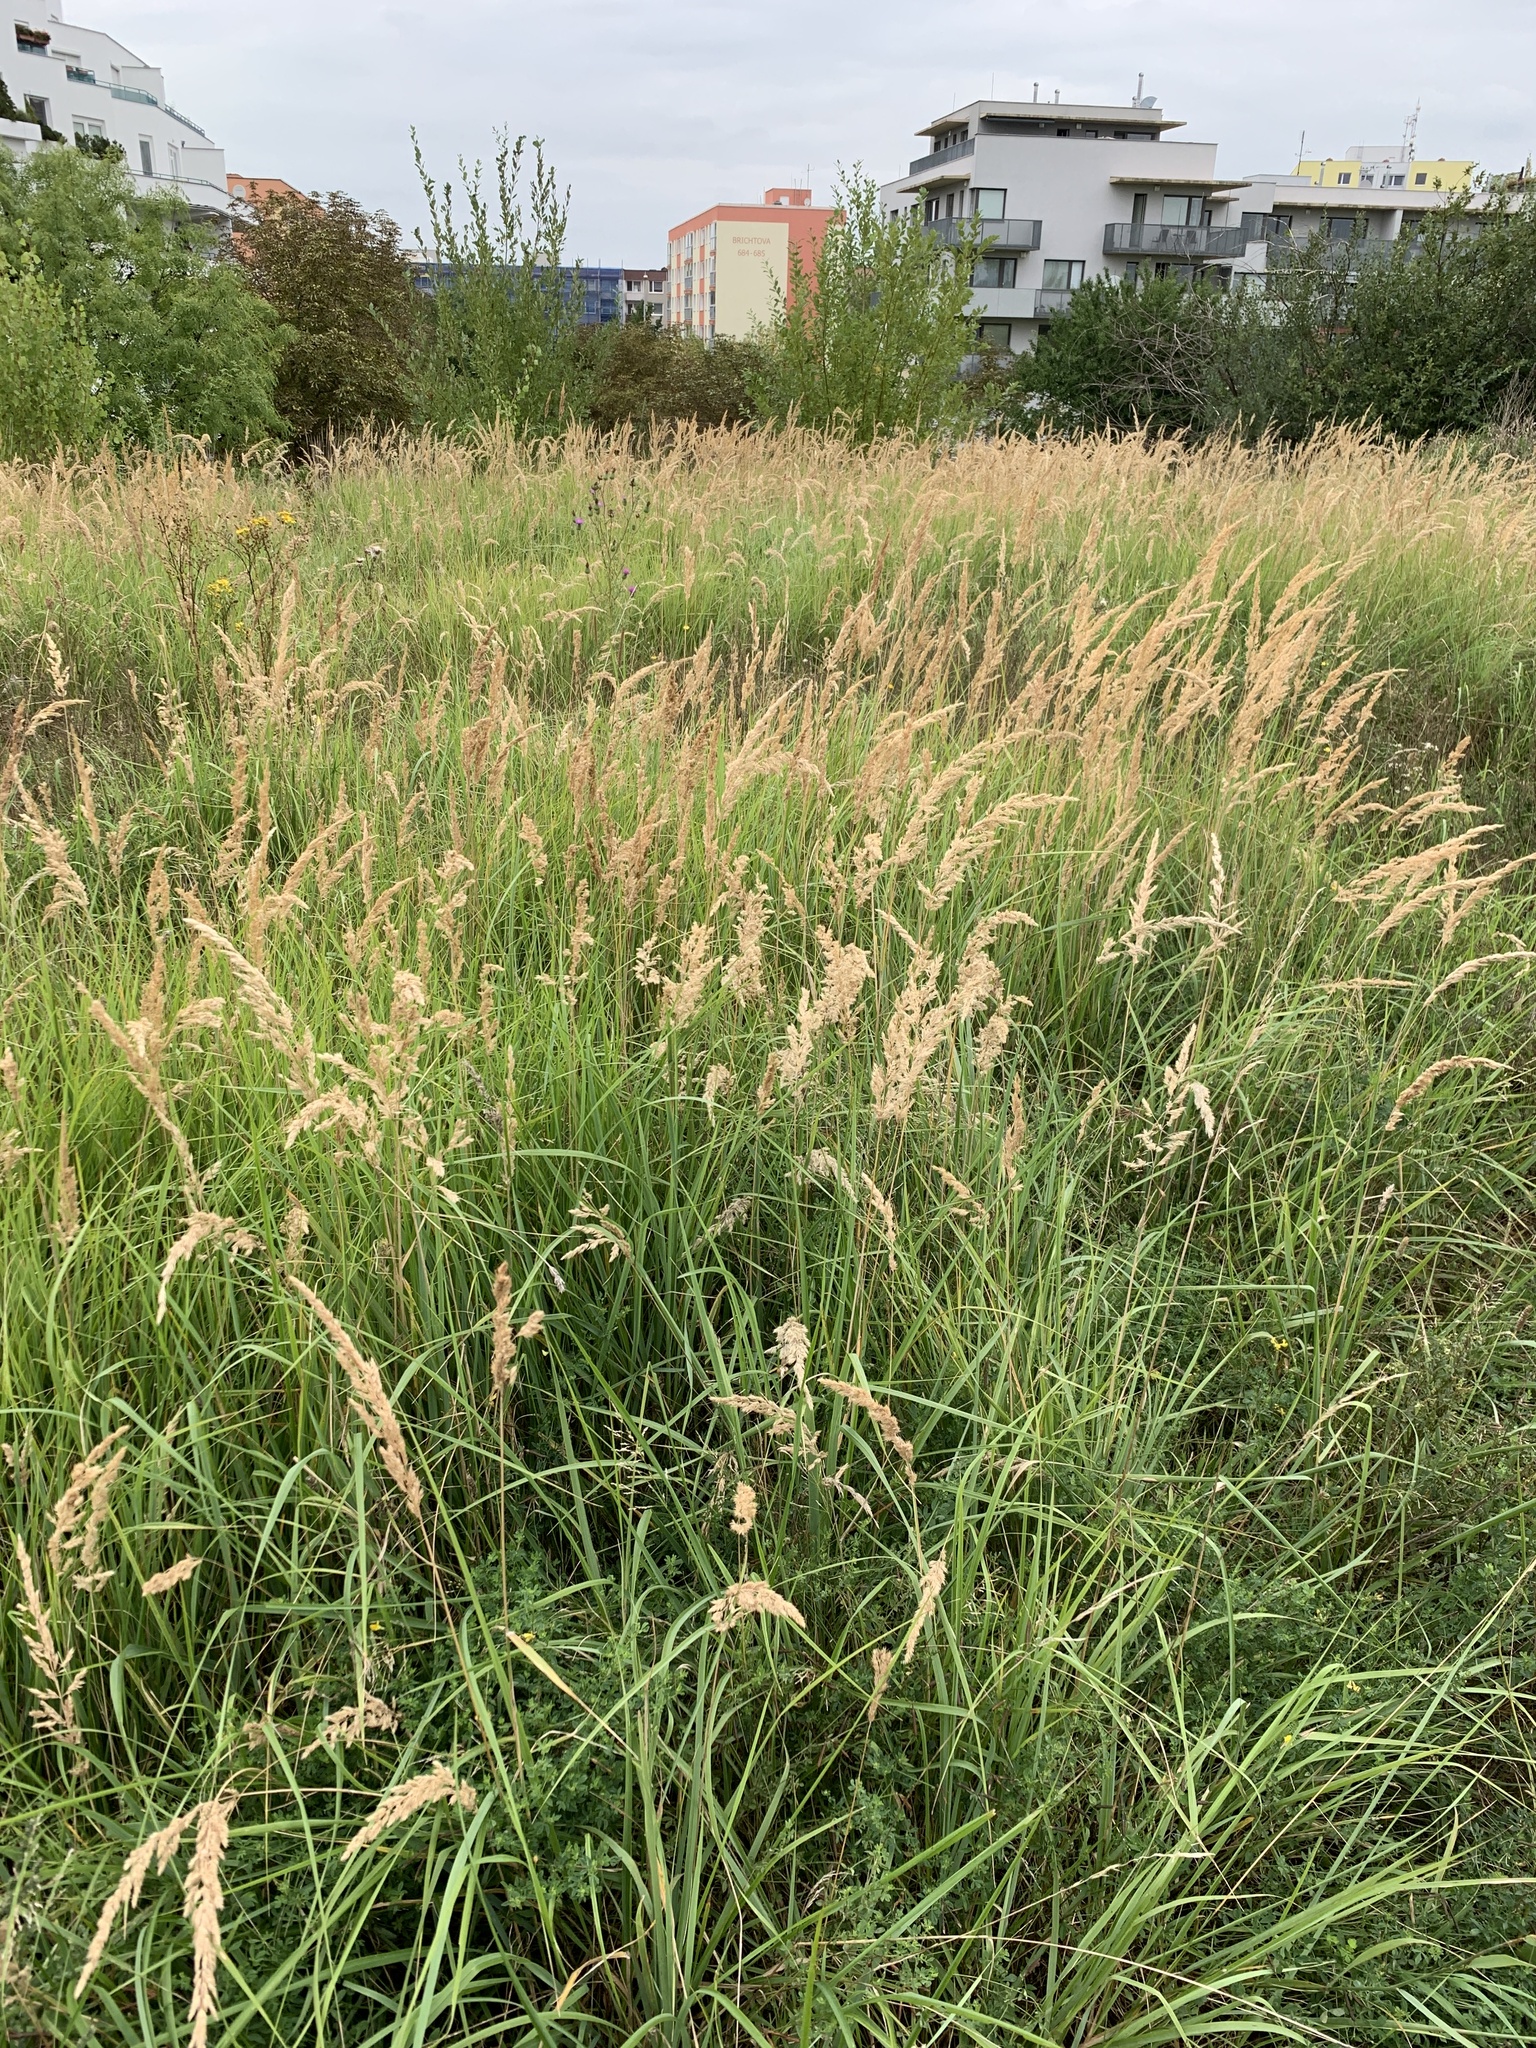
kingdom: Plantae
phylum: Tracheophyta
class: Liliopsida
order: Poales
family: Poaceae
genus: Calamagrostis
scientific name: Calamagrostis epigejos
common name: Wood small-reed
